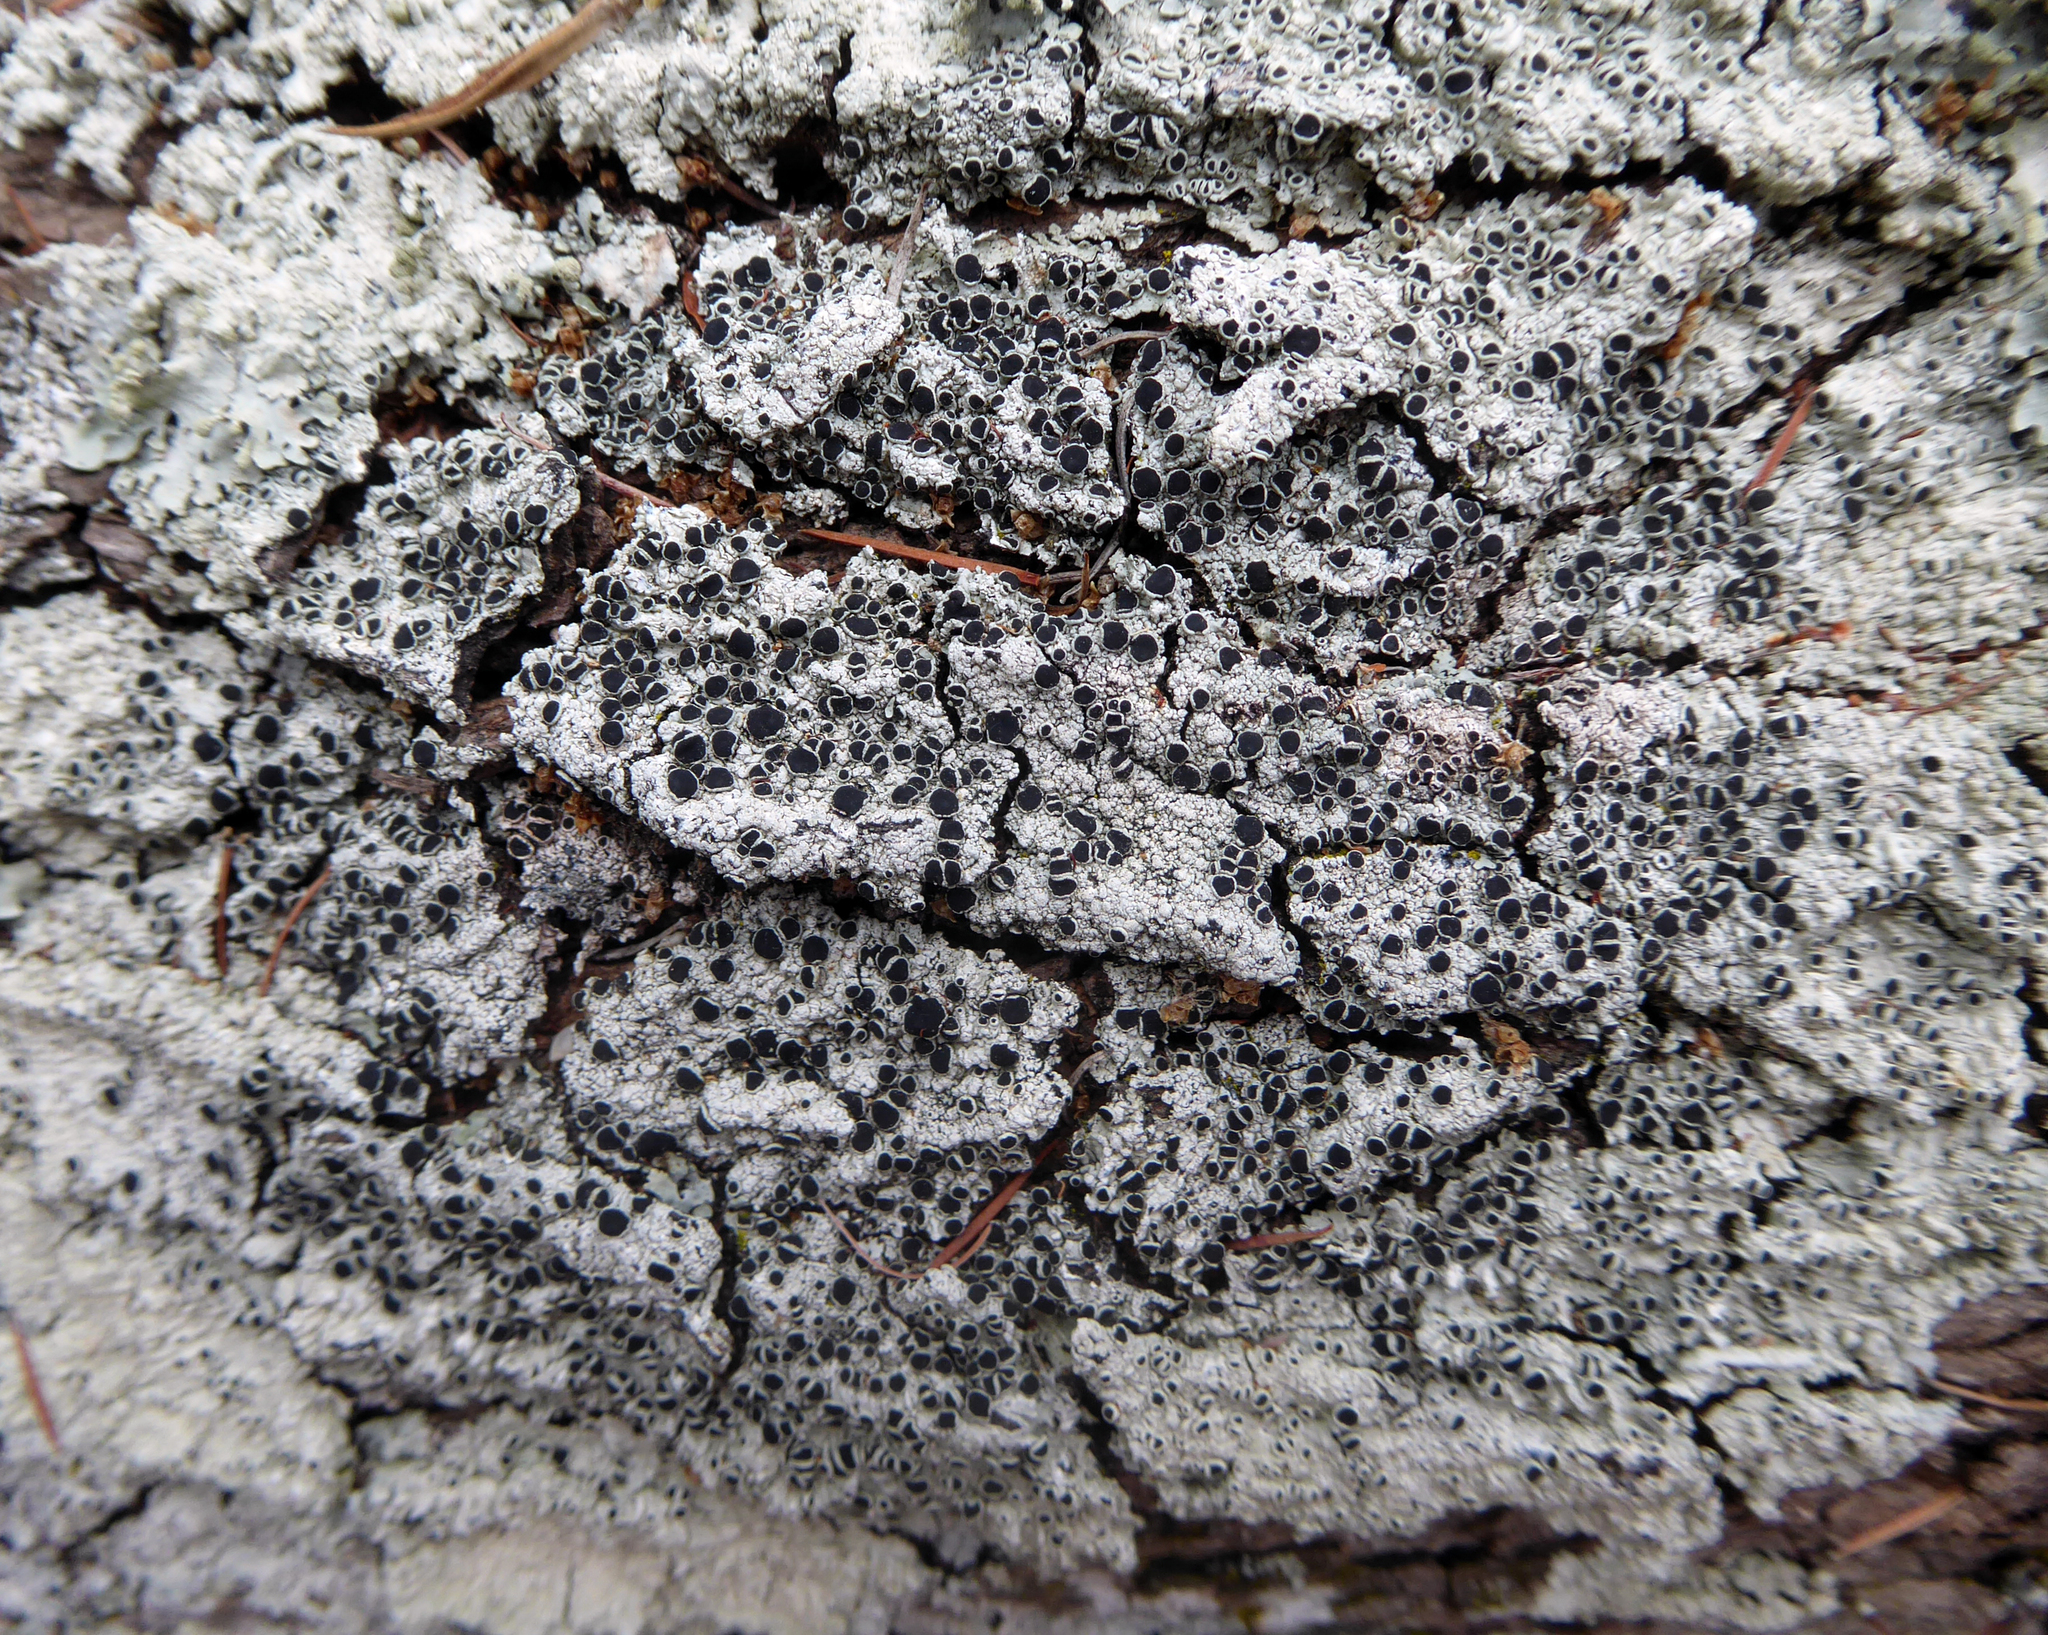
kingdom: Fungi
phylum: Ascomycota
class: Lecanoromycetes
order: Caliciales
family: Caliciaceae
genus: Dirinaria
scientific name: Dirinaria applanata
